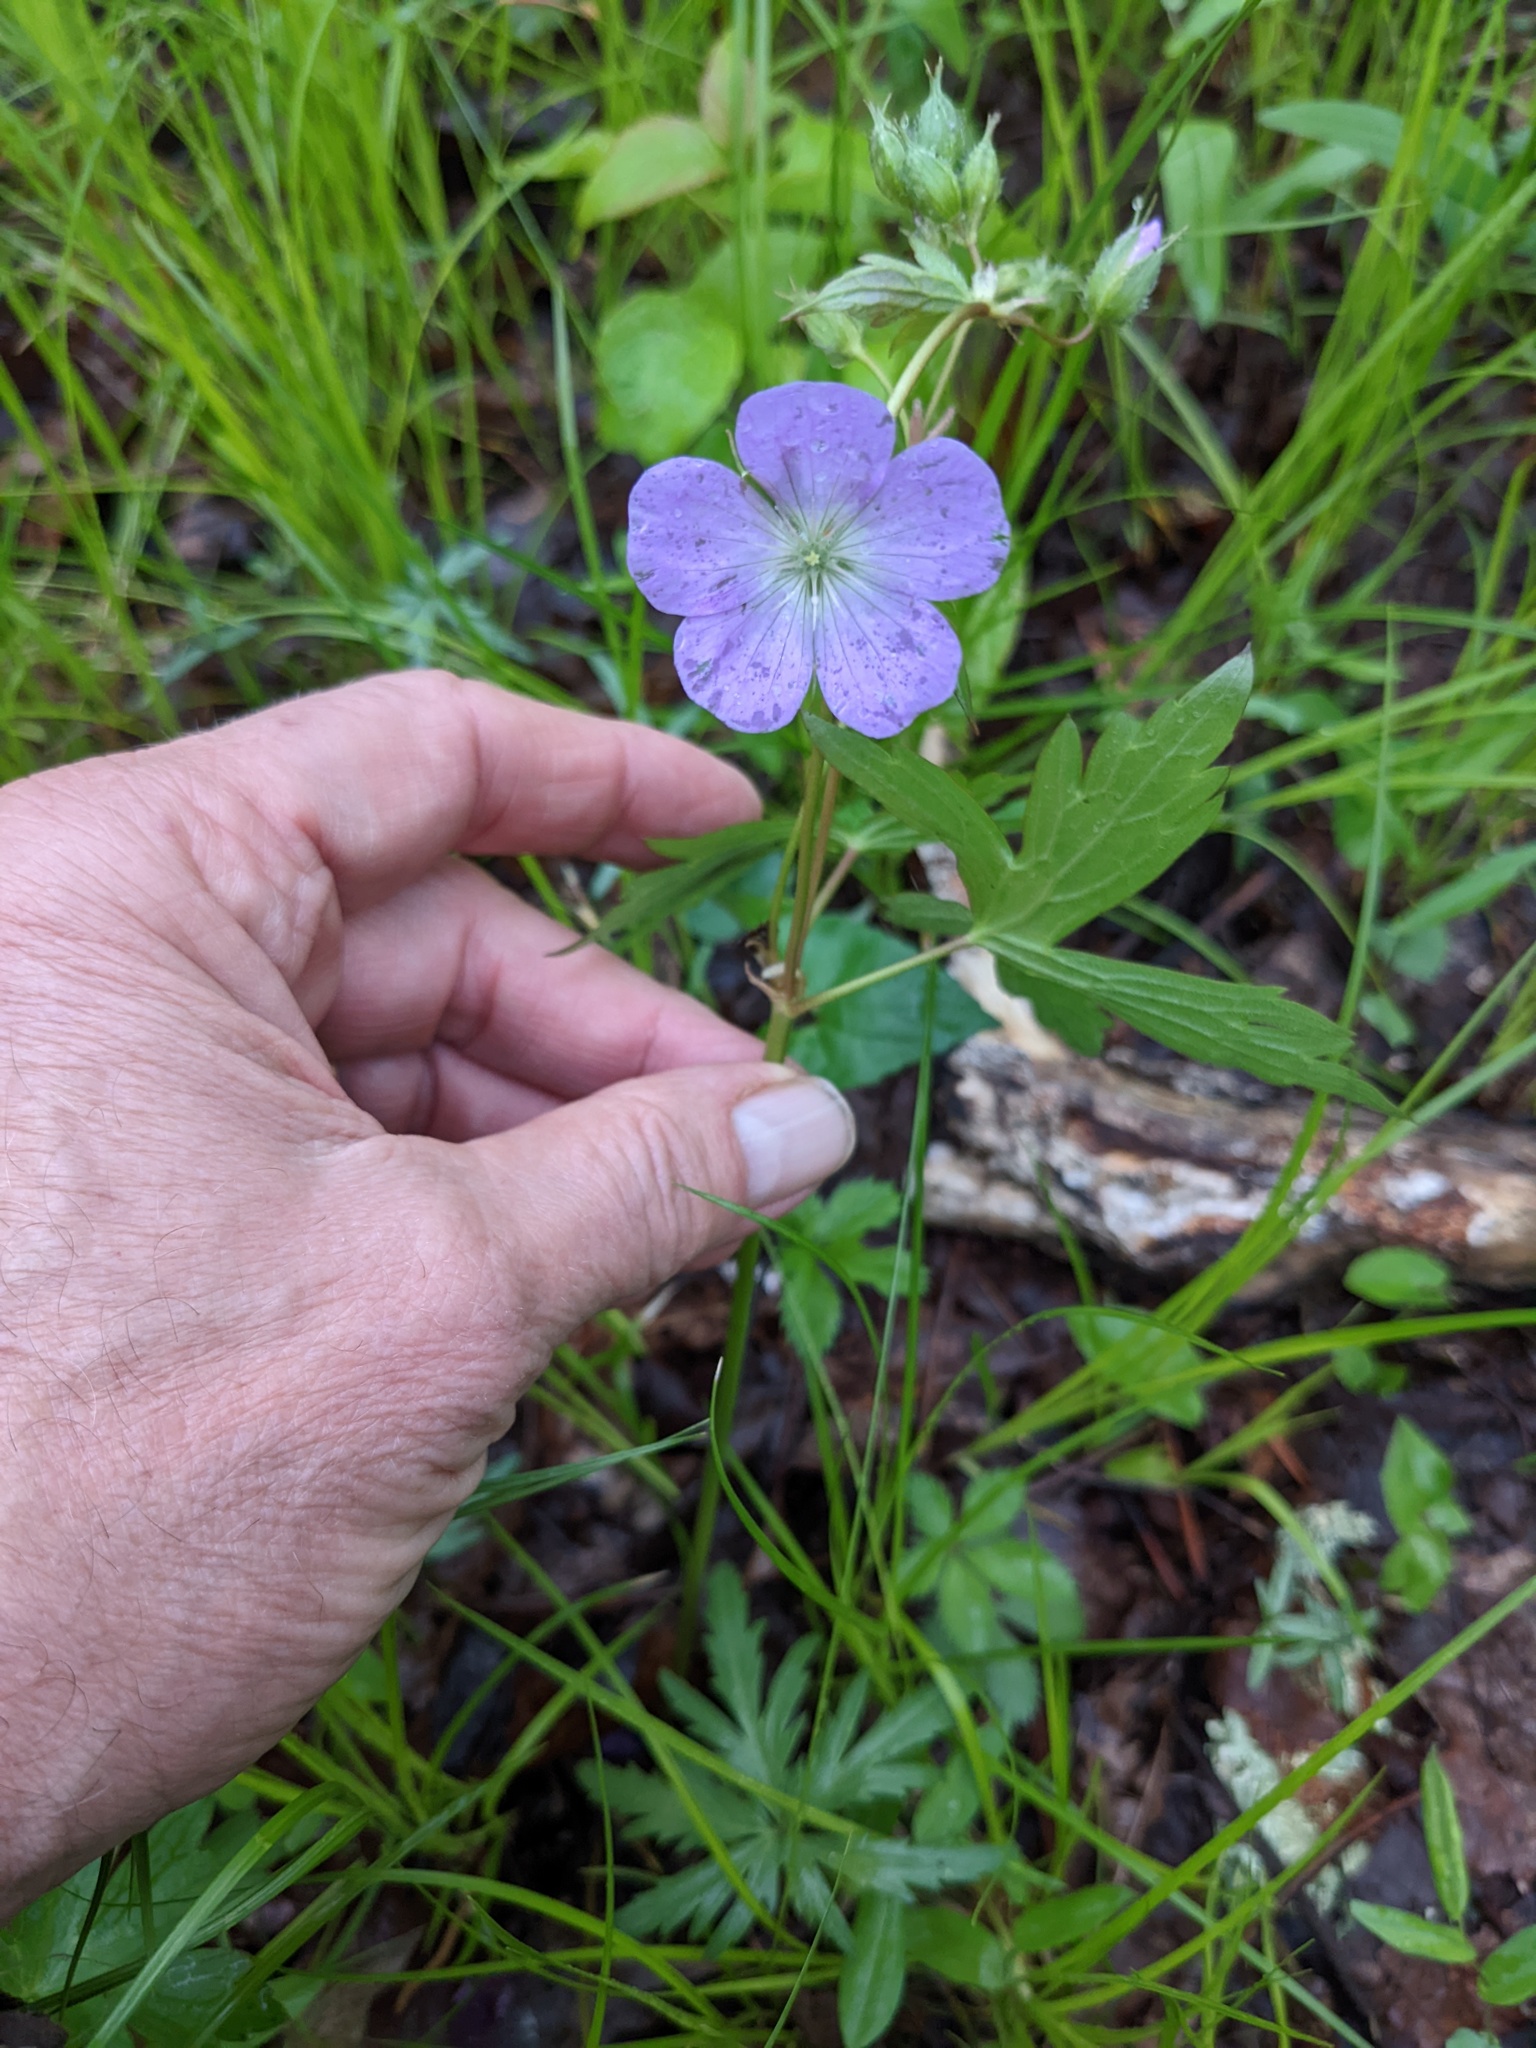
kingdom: Plantae
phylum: Tracheophyta
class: Magnoliopsida
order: Geraniales
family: Geraniaceae
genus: Geranium
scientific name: Geranium maculatum
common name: Spotted geranium
